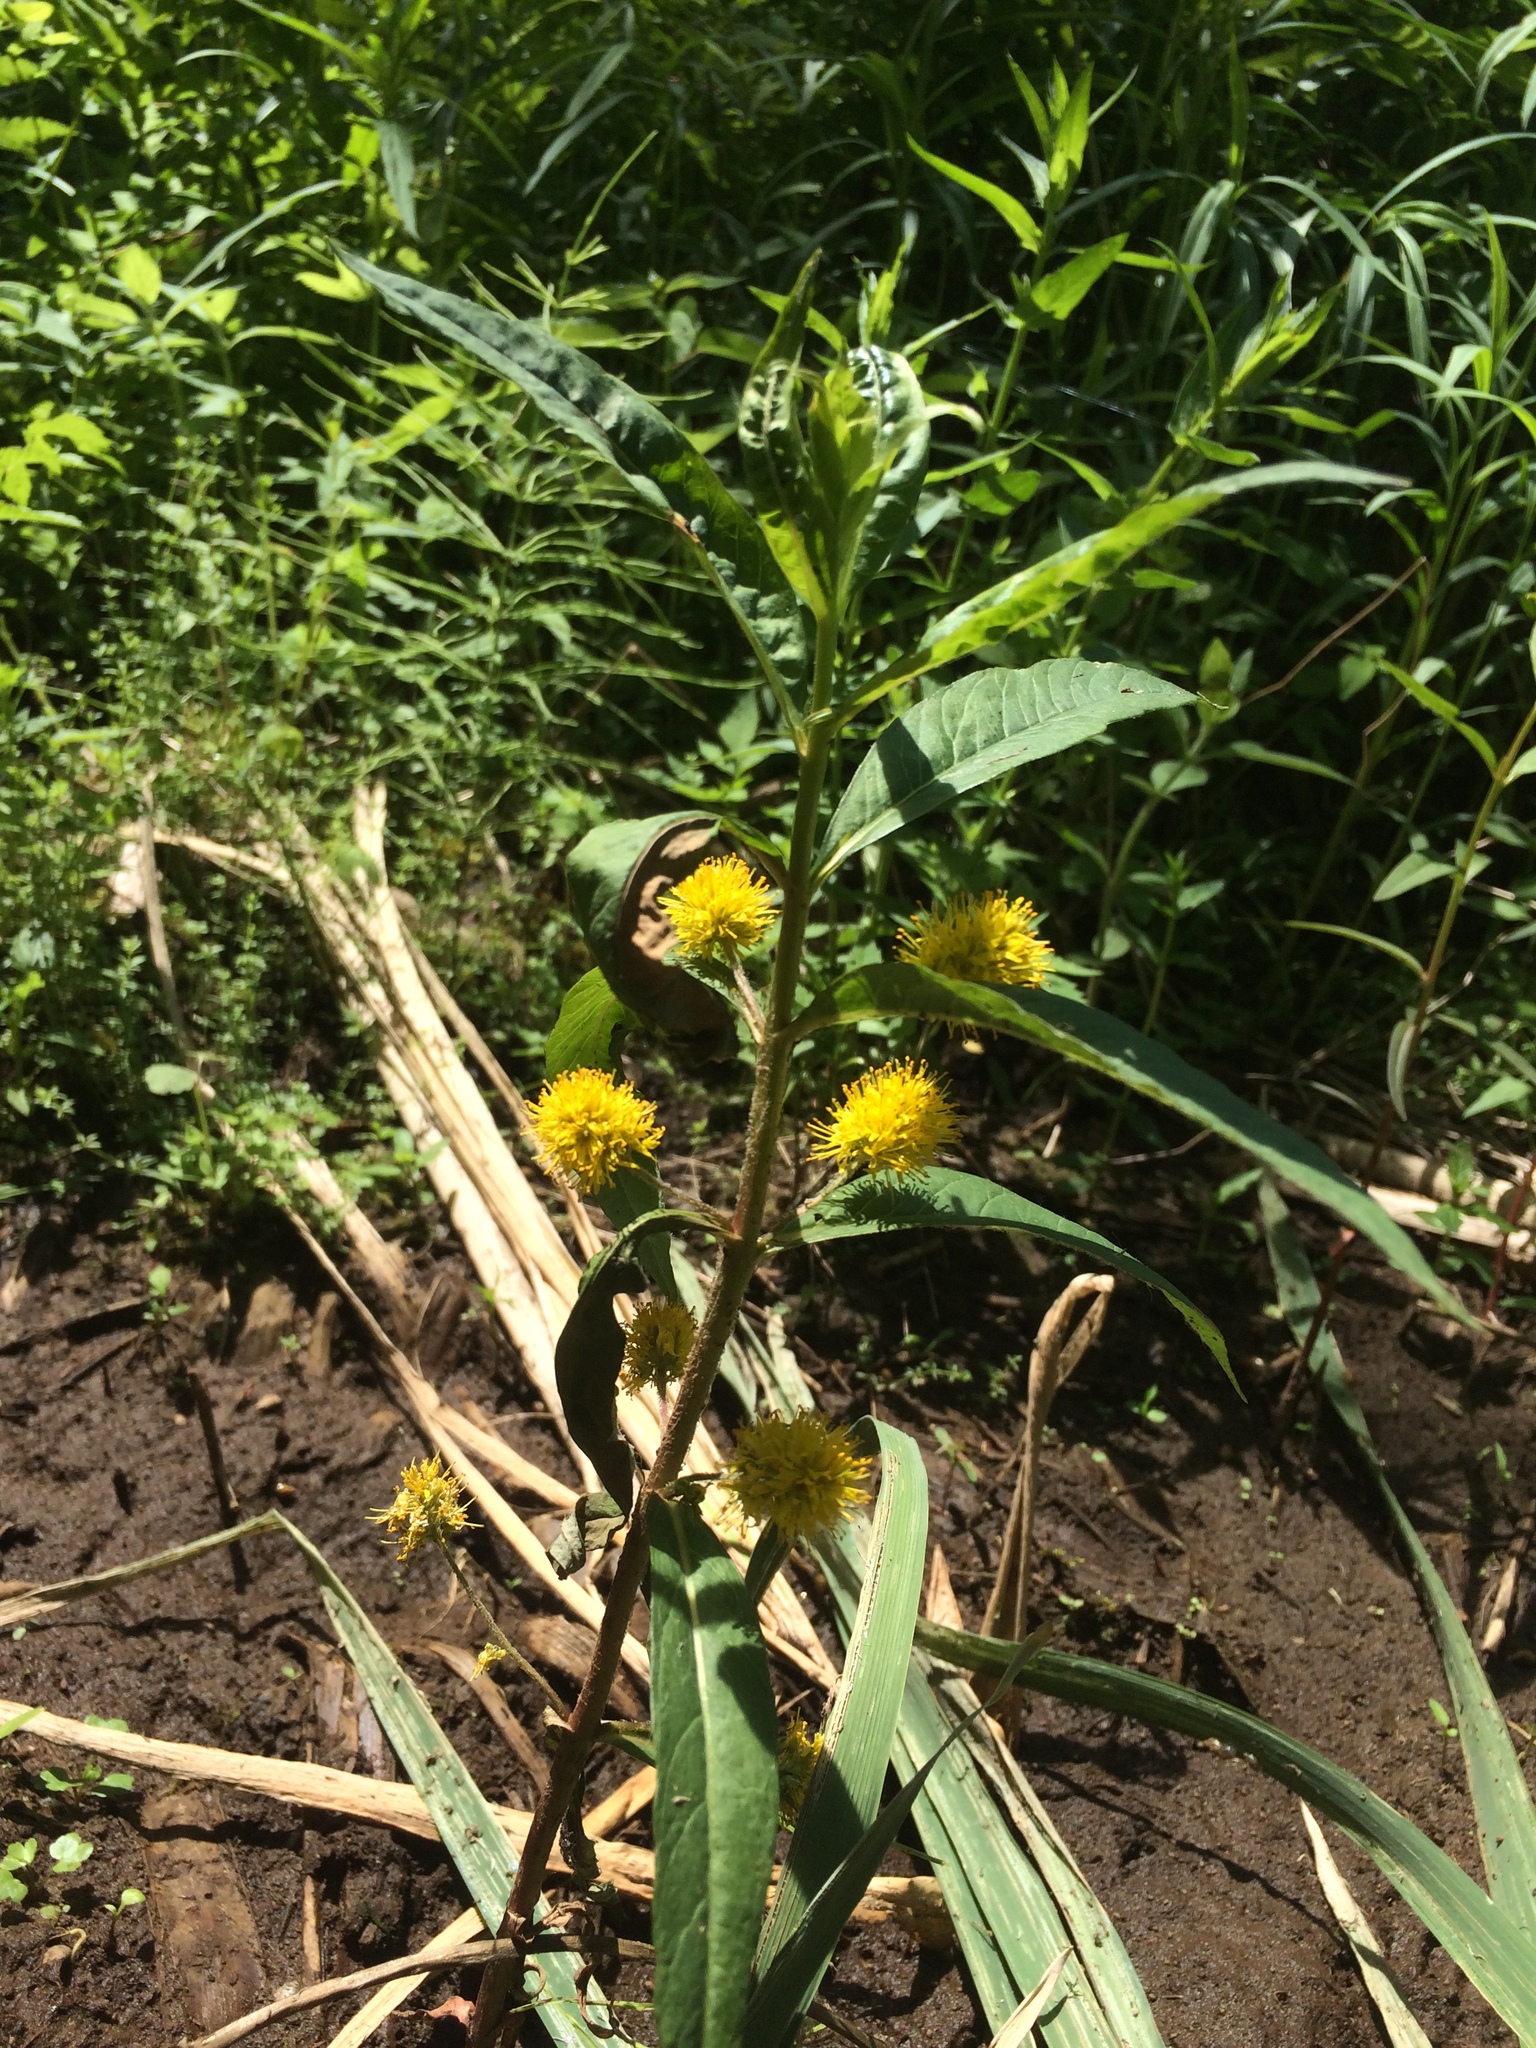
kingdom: Plantae
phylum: Tracheophyta
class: Magnoliopsida
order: Ericales
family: Primulaceae
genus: Lysimachia
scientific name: Lysimachia thyrsiflora
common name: Tufted loosestrife
